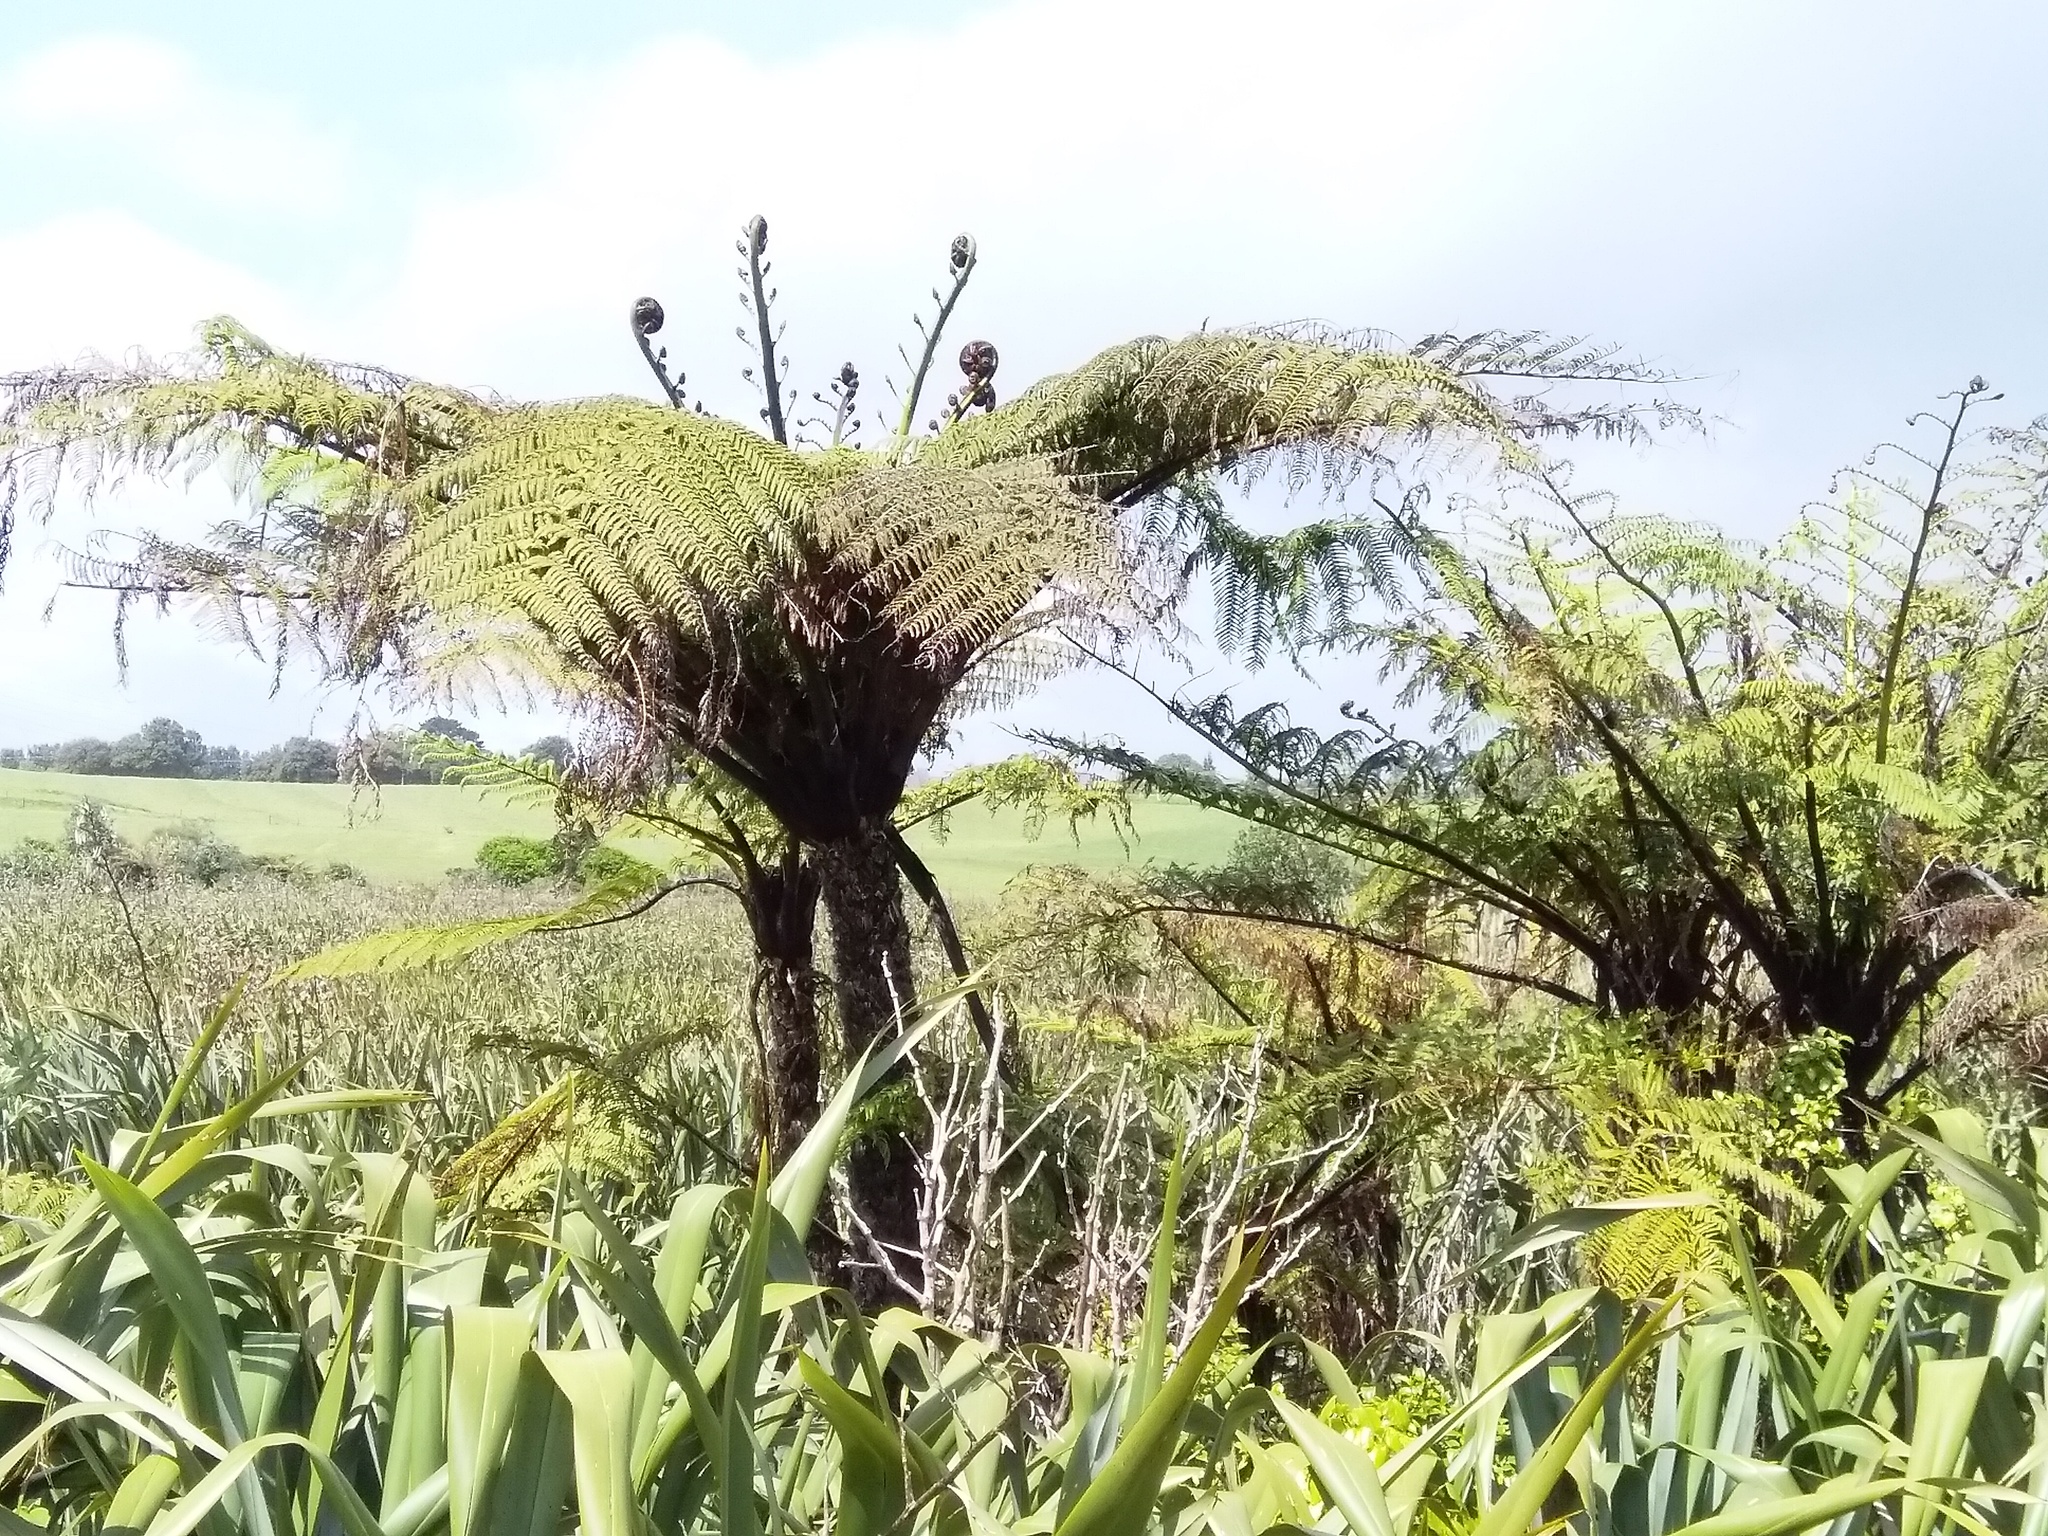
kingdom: Plantae
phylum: Tracheophyta
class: Polypodiopsida
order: Cyatheales
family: Cyatheaceae
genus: Sphaeropteris
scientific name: Sphaeropteris medullaris
